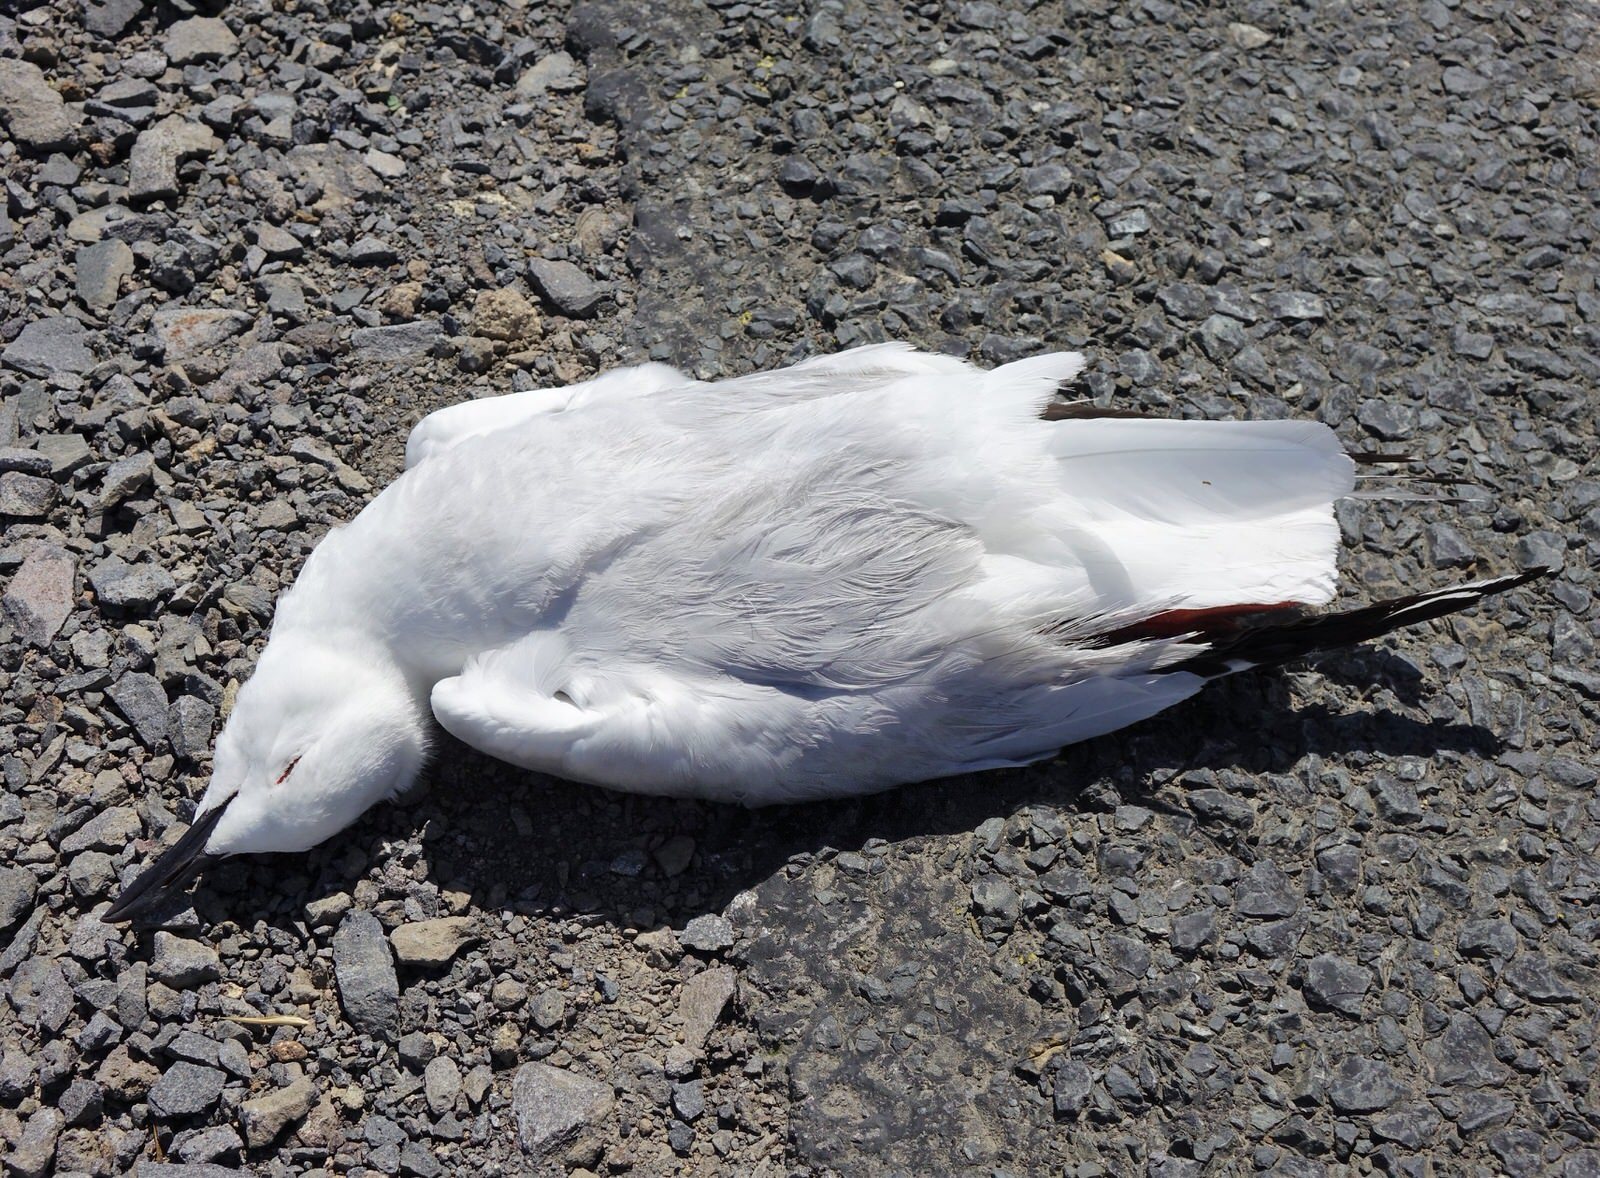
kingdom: Animalia
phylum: Chordata
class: Aves
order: Charadriiformes
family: Laridae
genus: Chroicocephalus
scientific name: Chroicocephalus bulleri
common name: Black-billed gull
